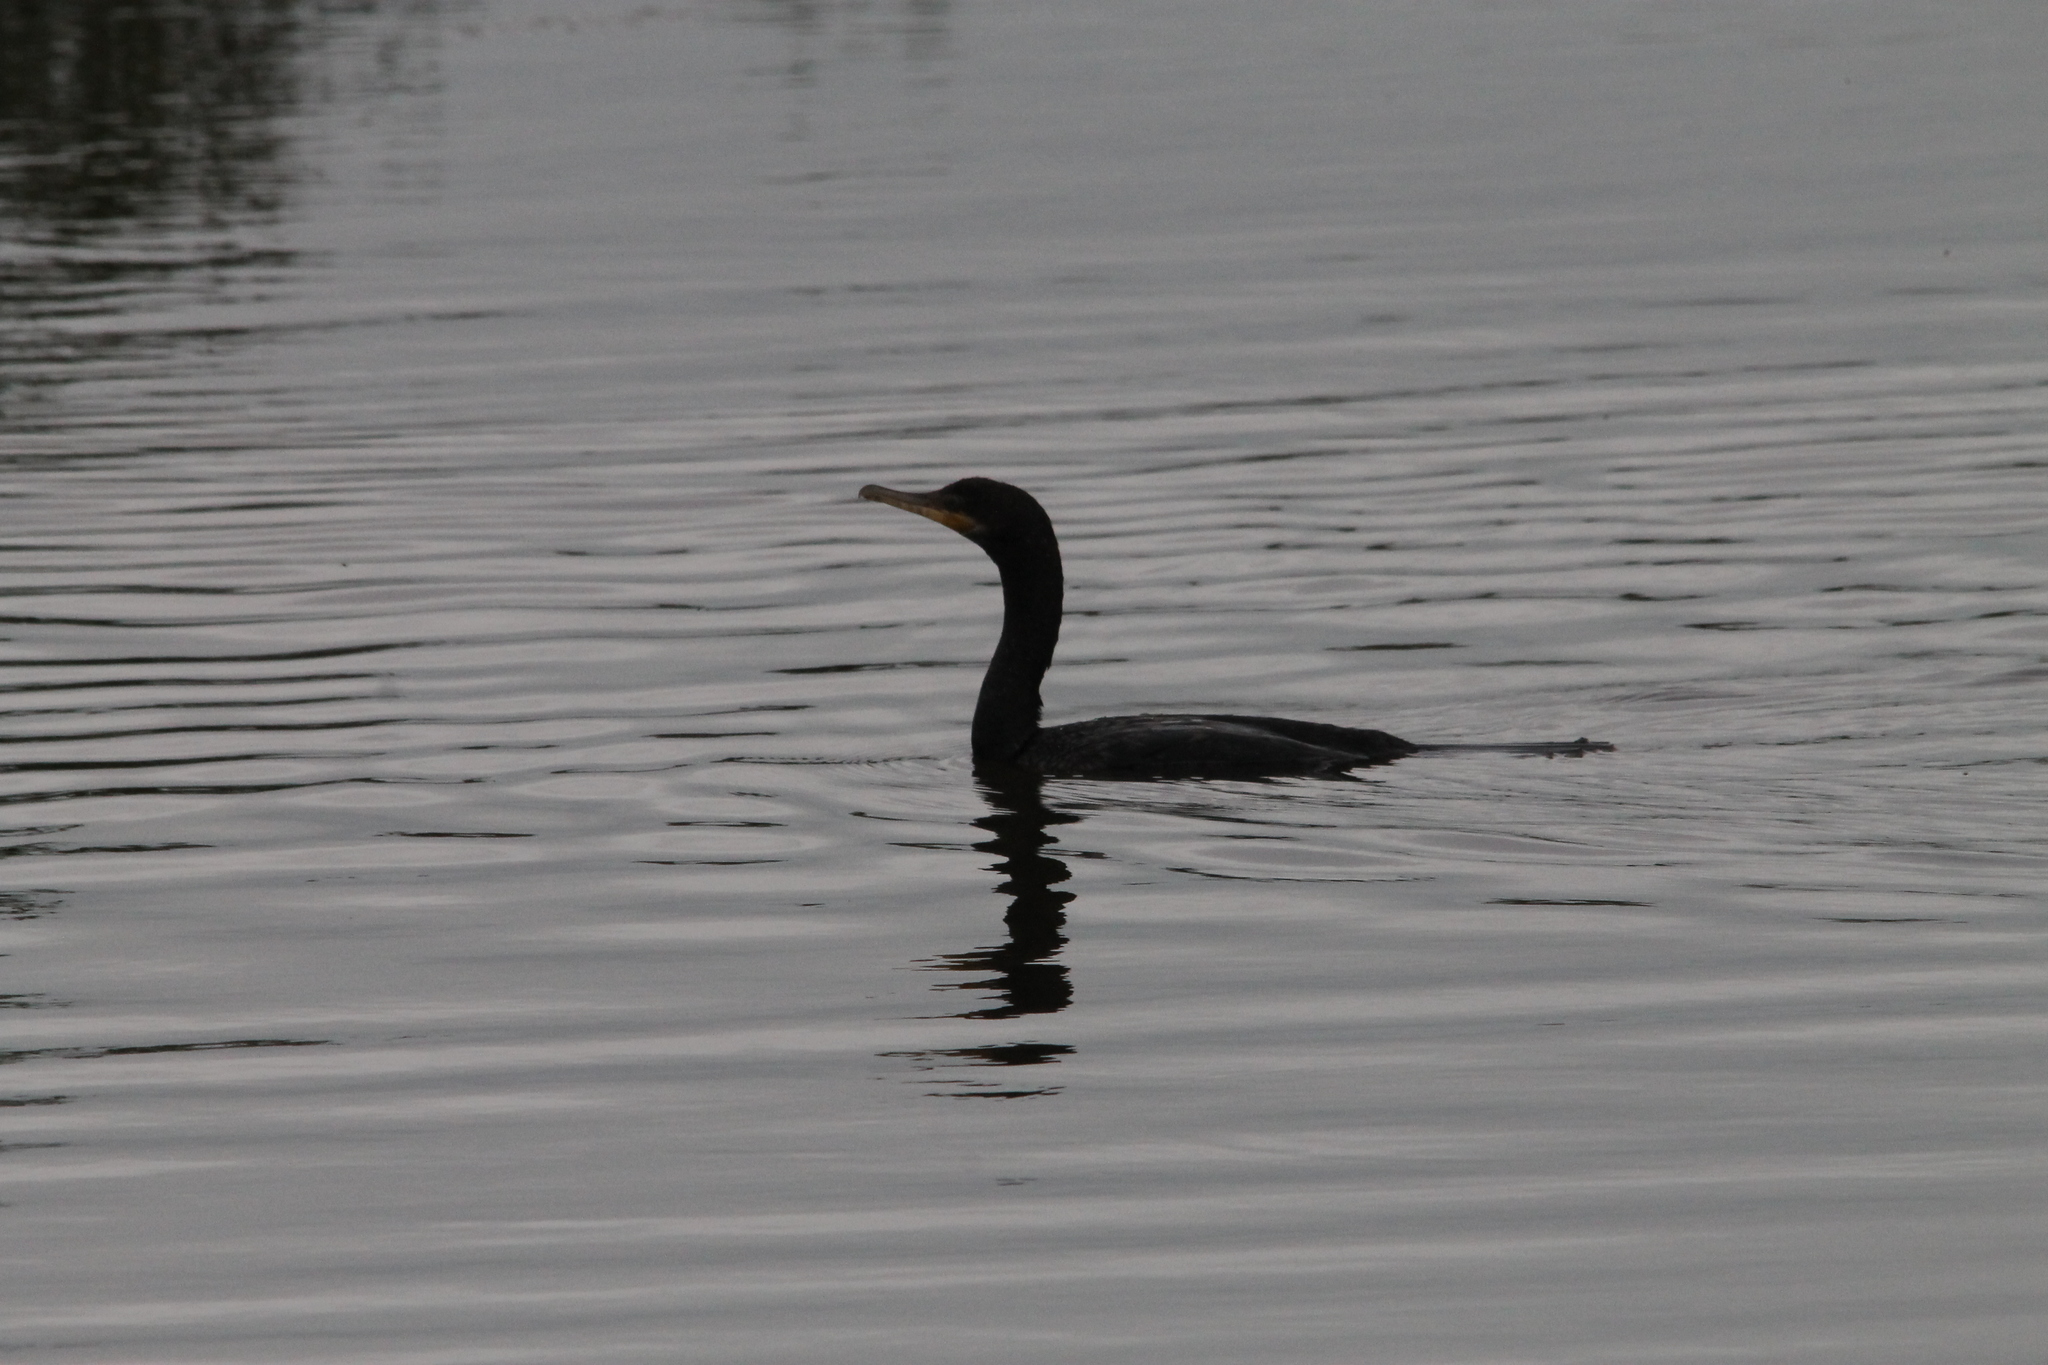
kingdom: Animalia
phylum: Chordata
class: Aves
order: Suliformes
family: Phalacrocoracidae
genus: Phalacrocorax
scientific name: Phalacrocorax brasilianus
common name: Neotropic cormorant
